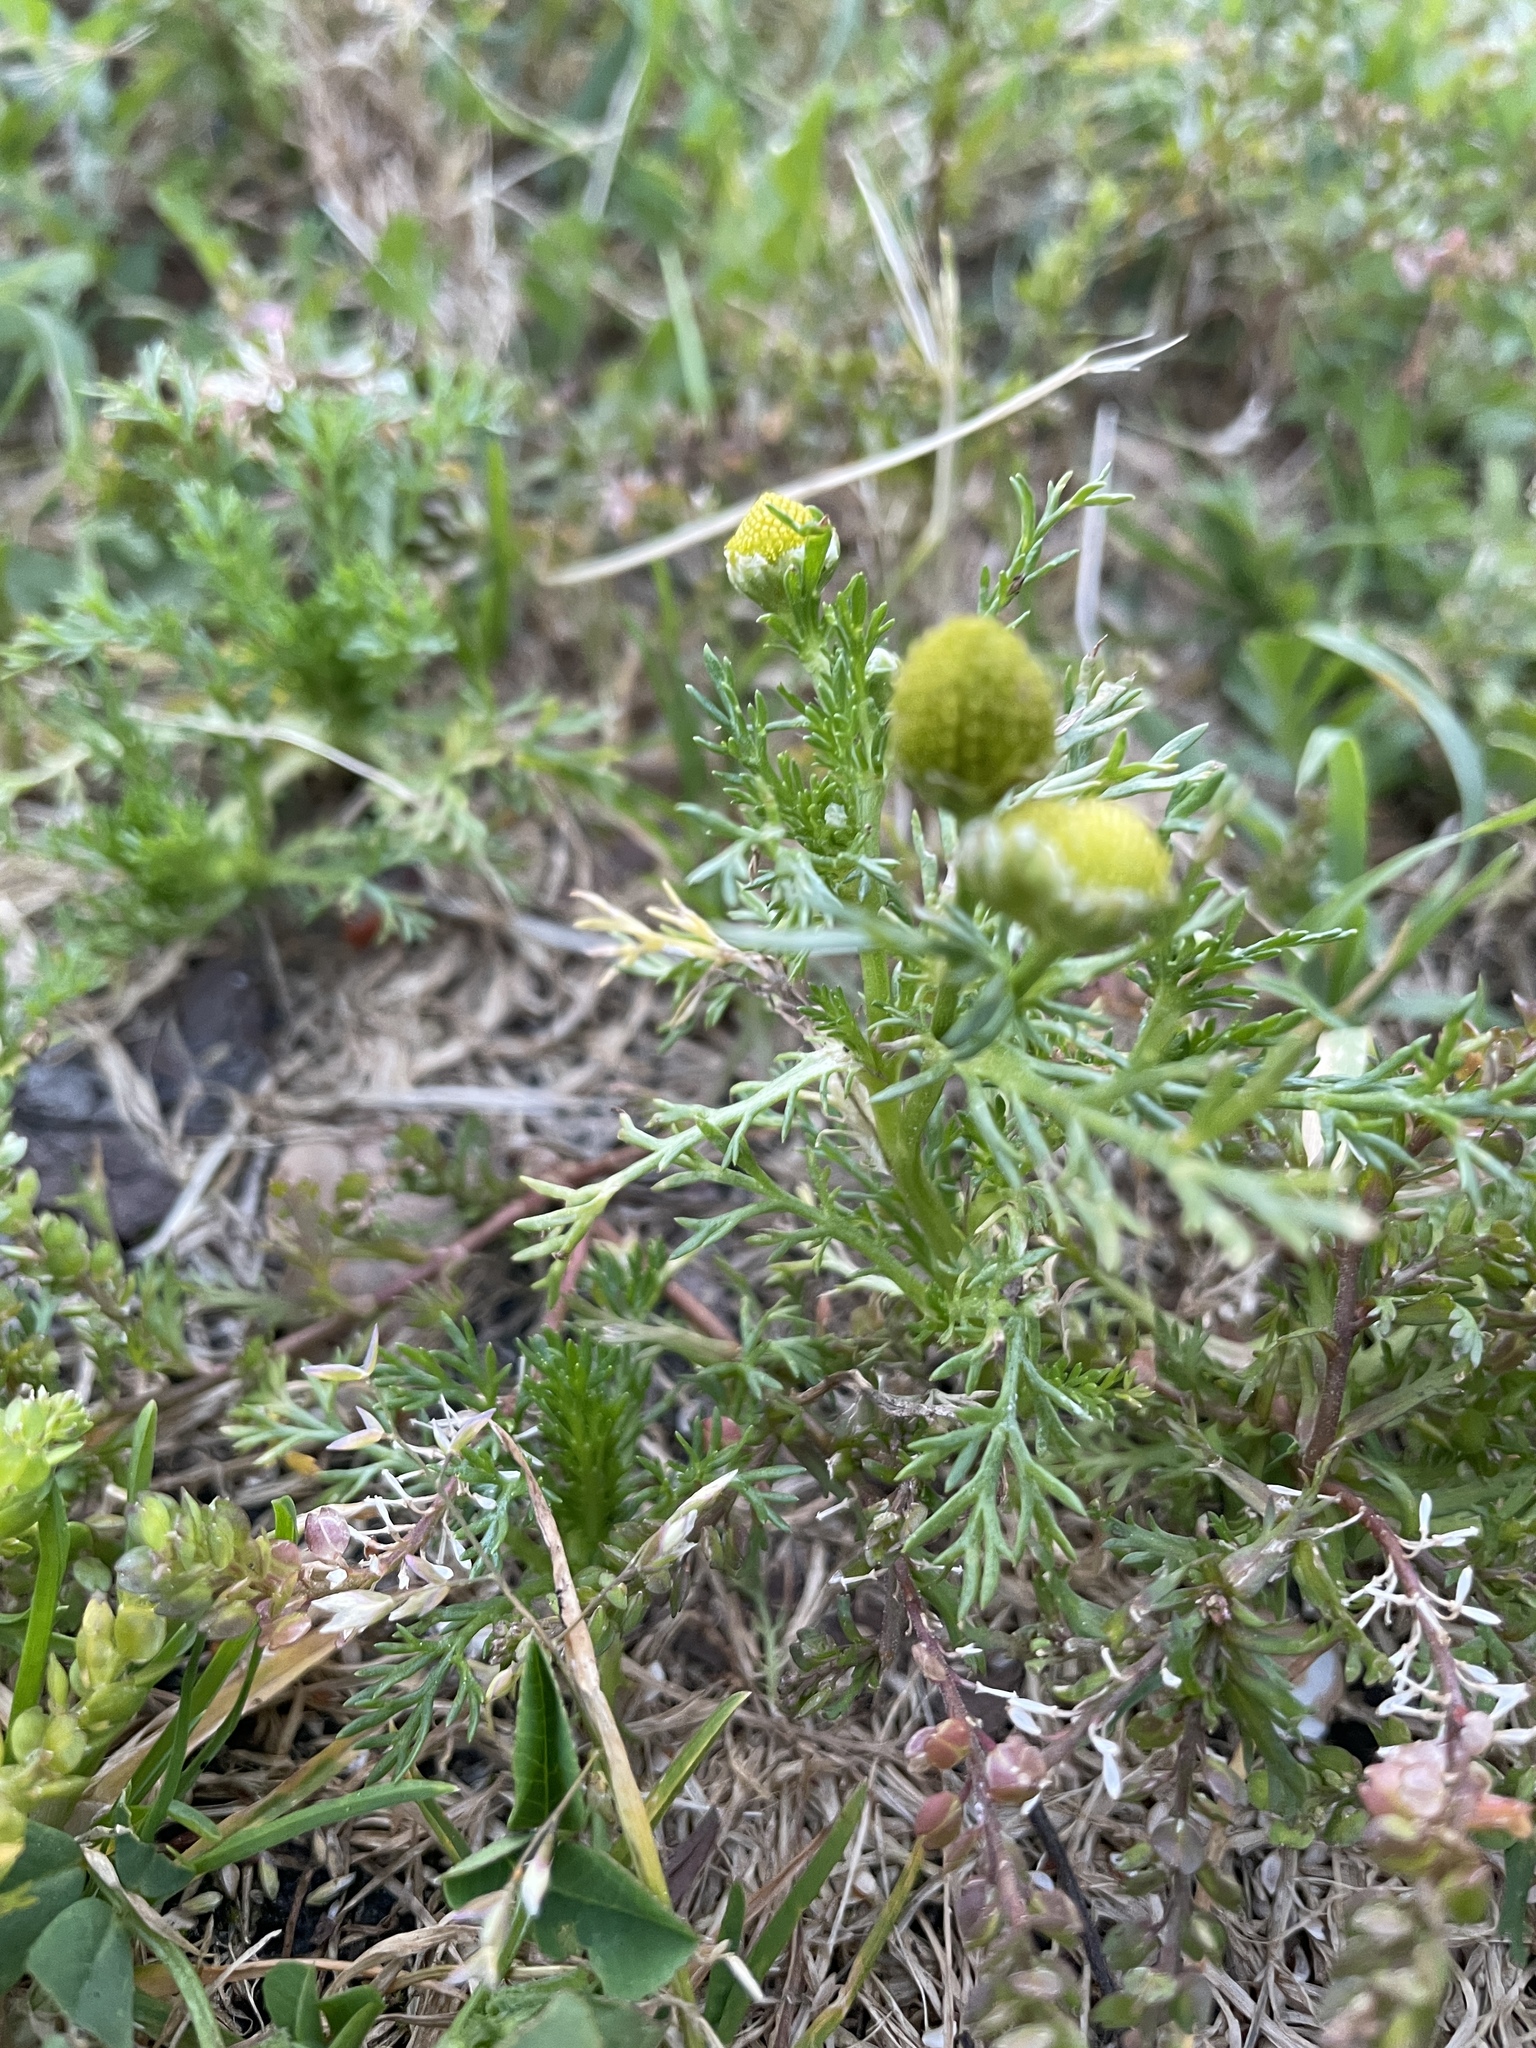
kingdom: Plantae
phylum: Tracheophyta
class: Magnoliopsida
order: Asterales
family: Asteraceae
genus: Matricaria
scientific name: Matricaria discoidea
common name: Disc mayweed
